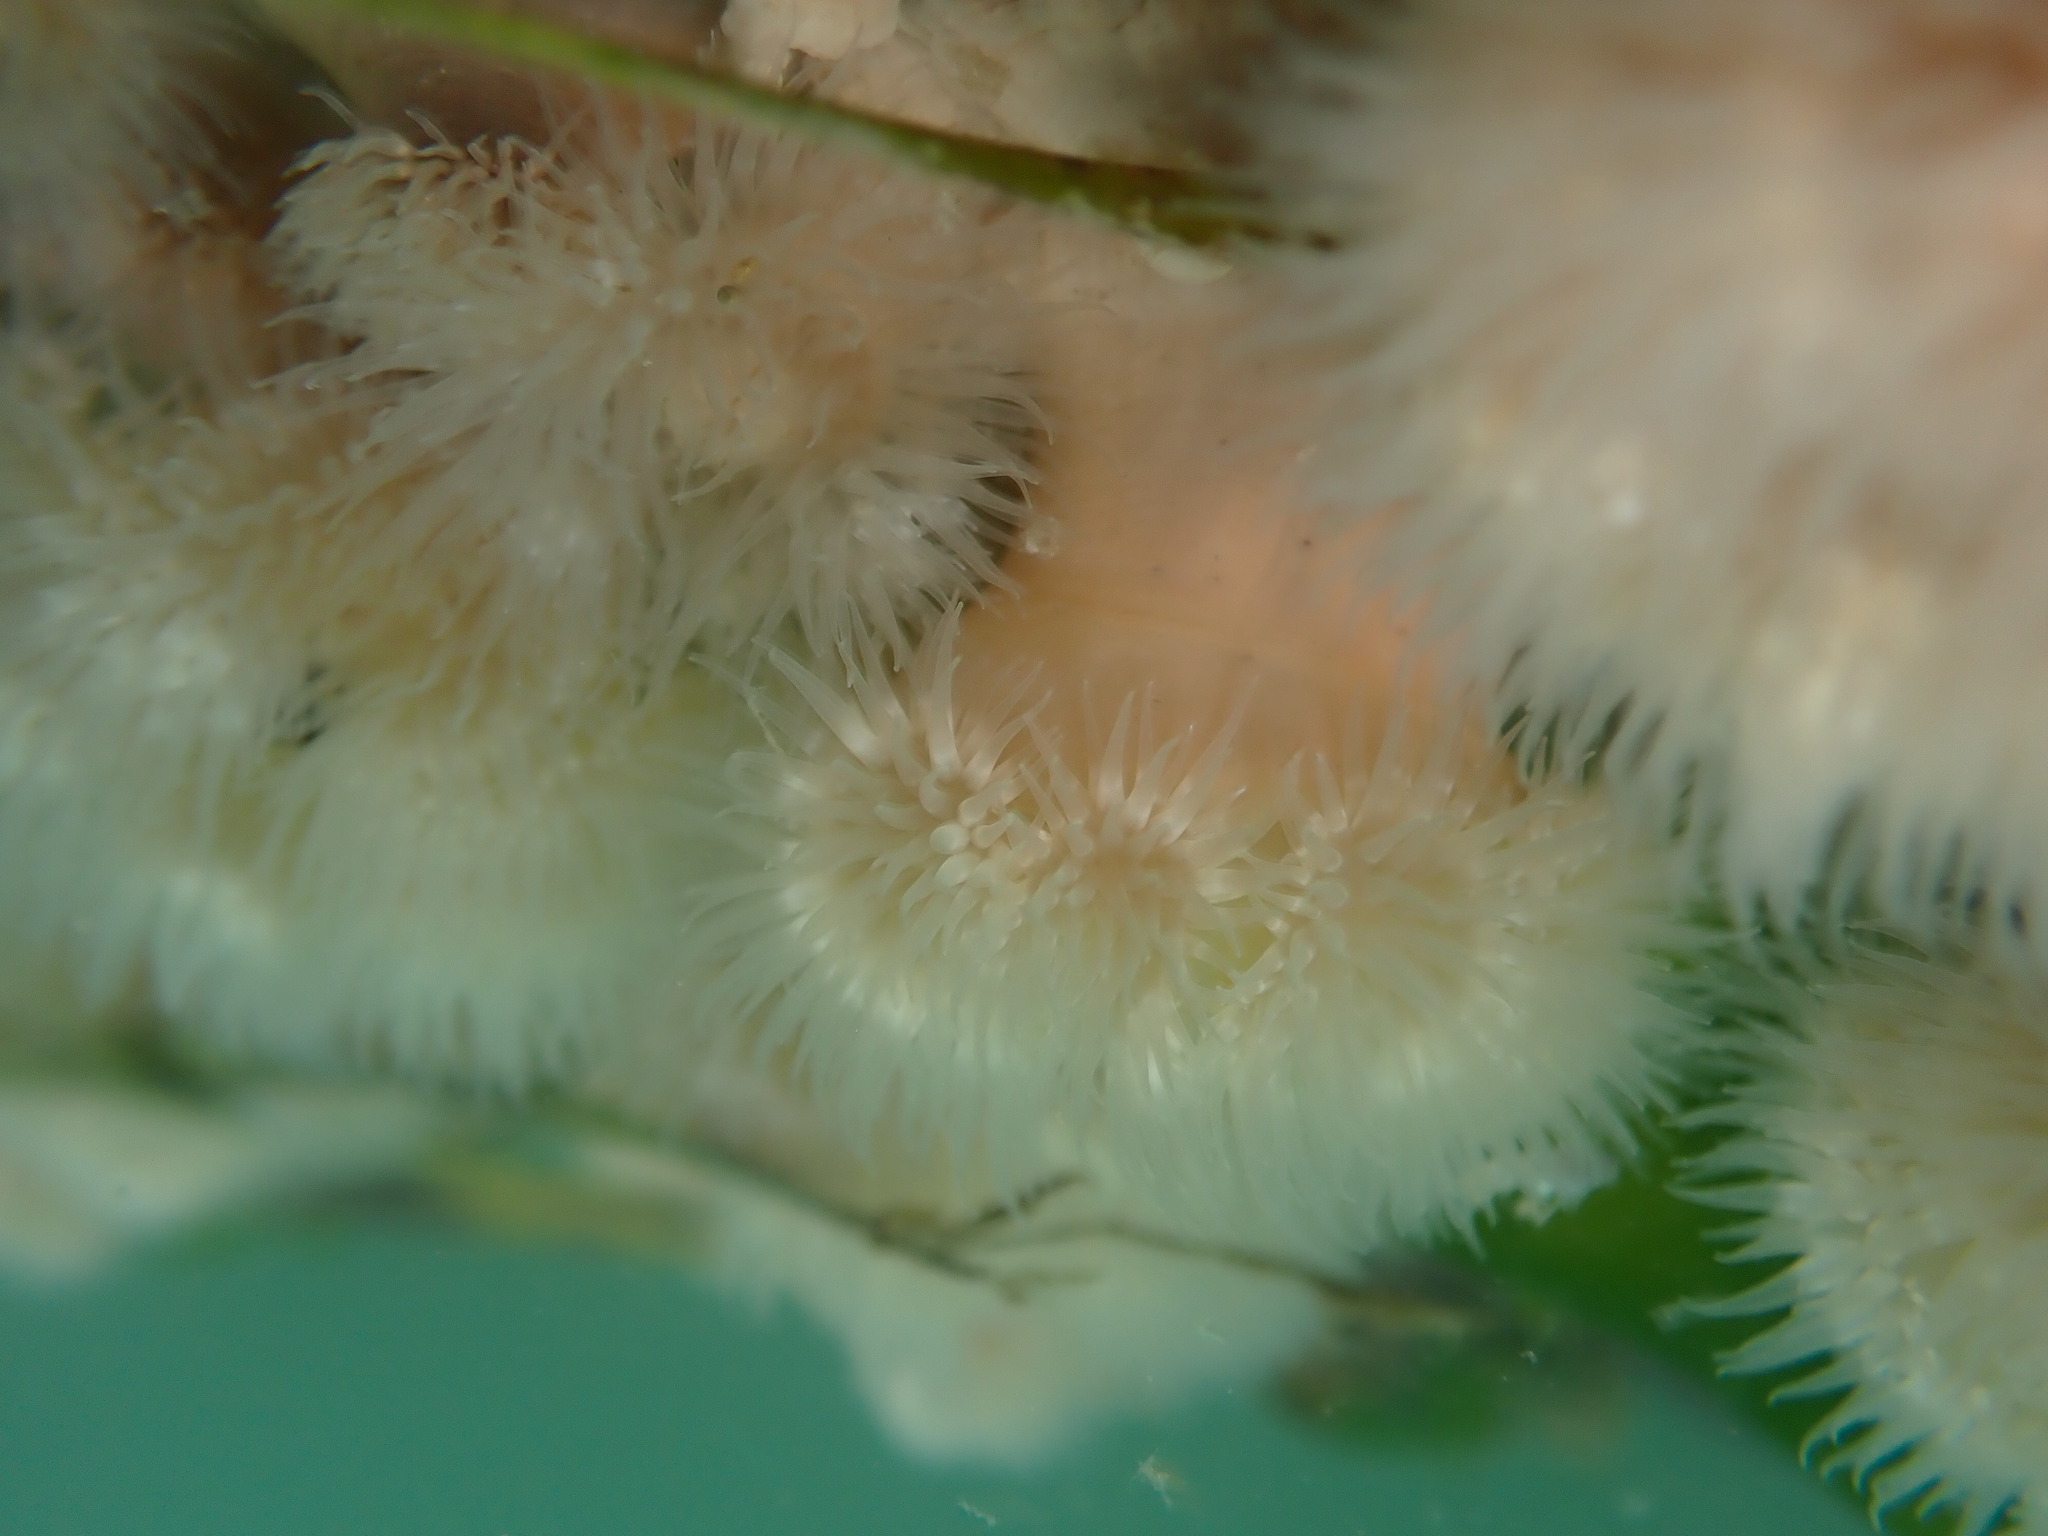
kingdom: Animalia
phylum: Cnidaria
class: Anthozoa
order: Actiniaria
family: Metridiidae
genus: Metridium
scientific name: Metridium senile
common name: Clonal plumose anemone
